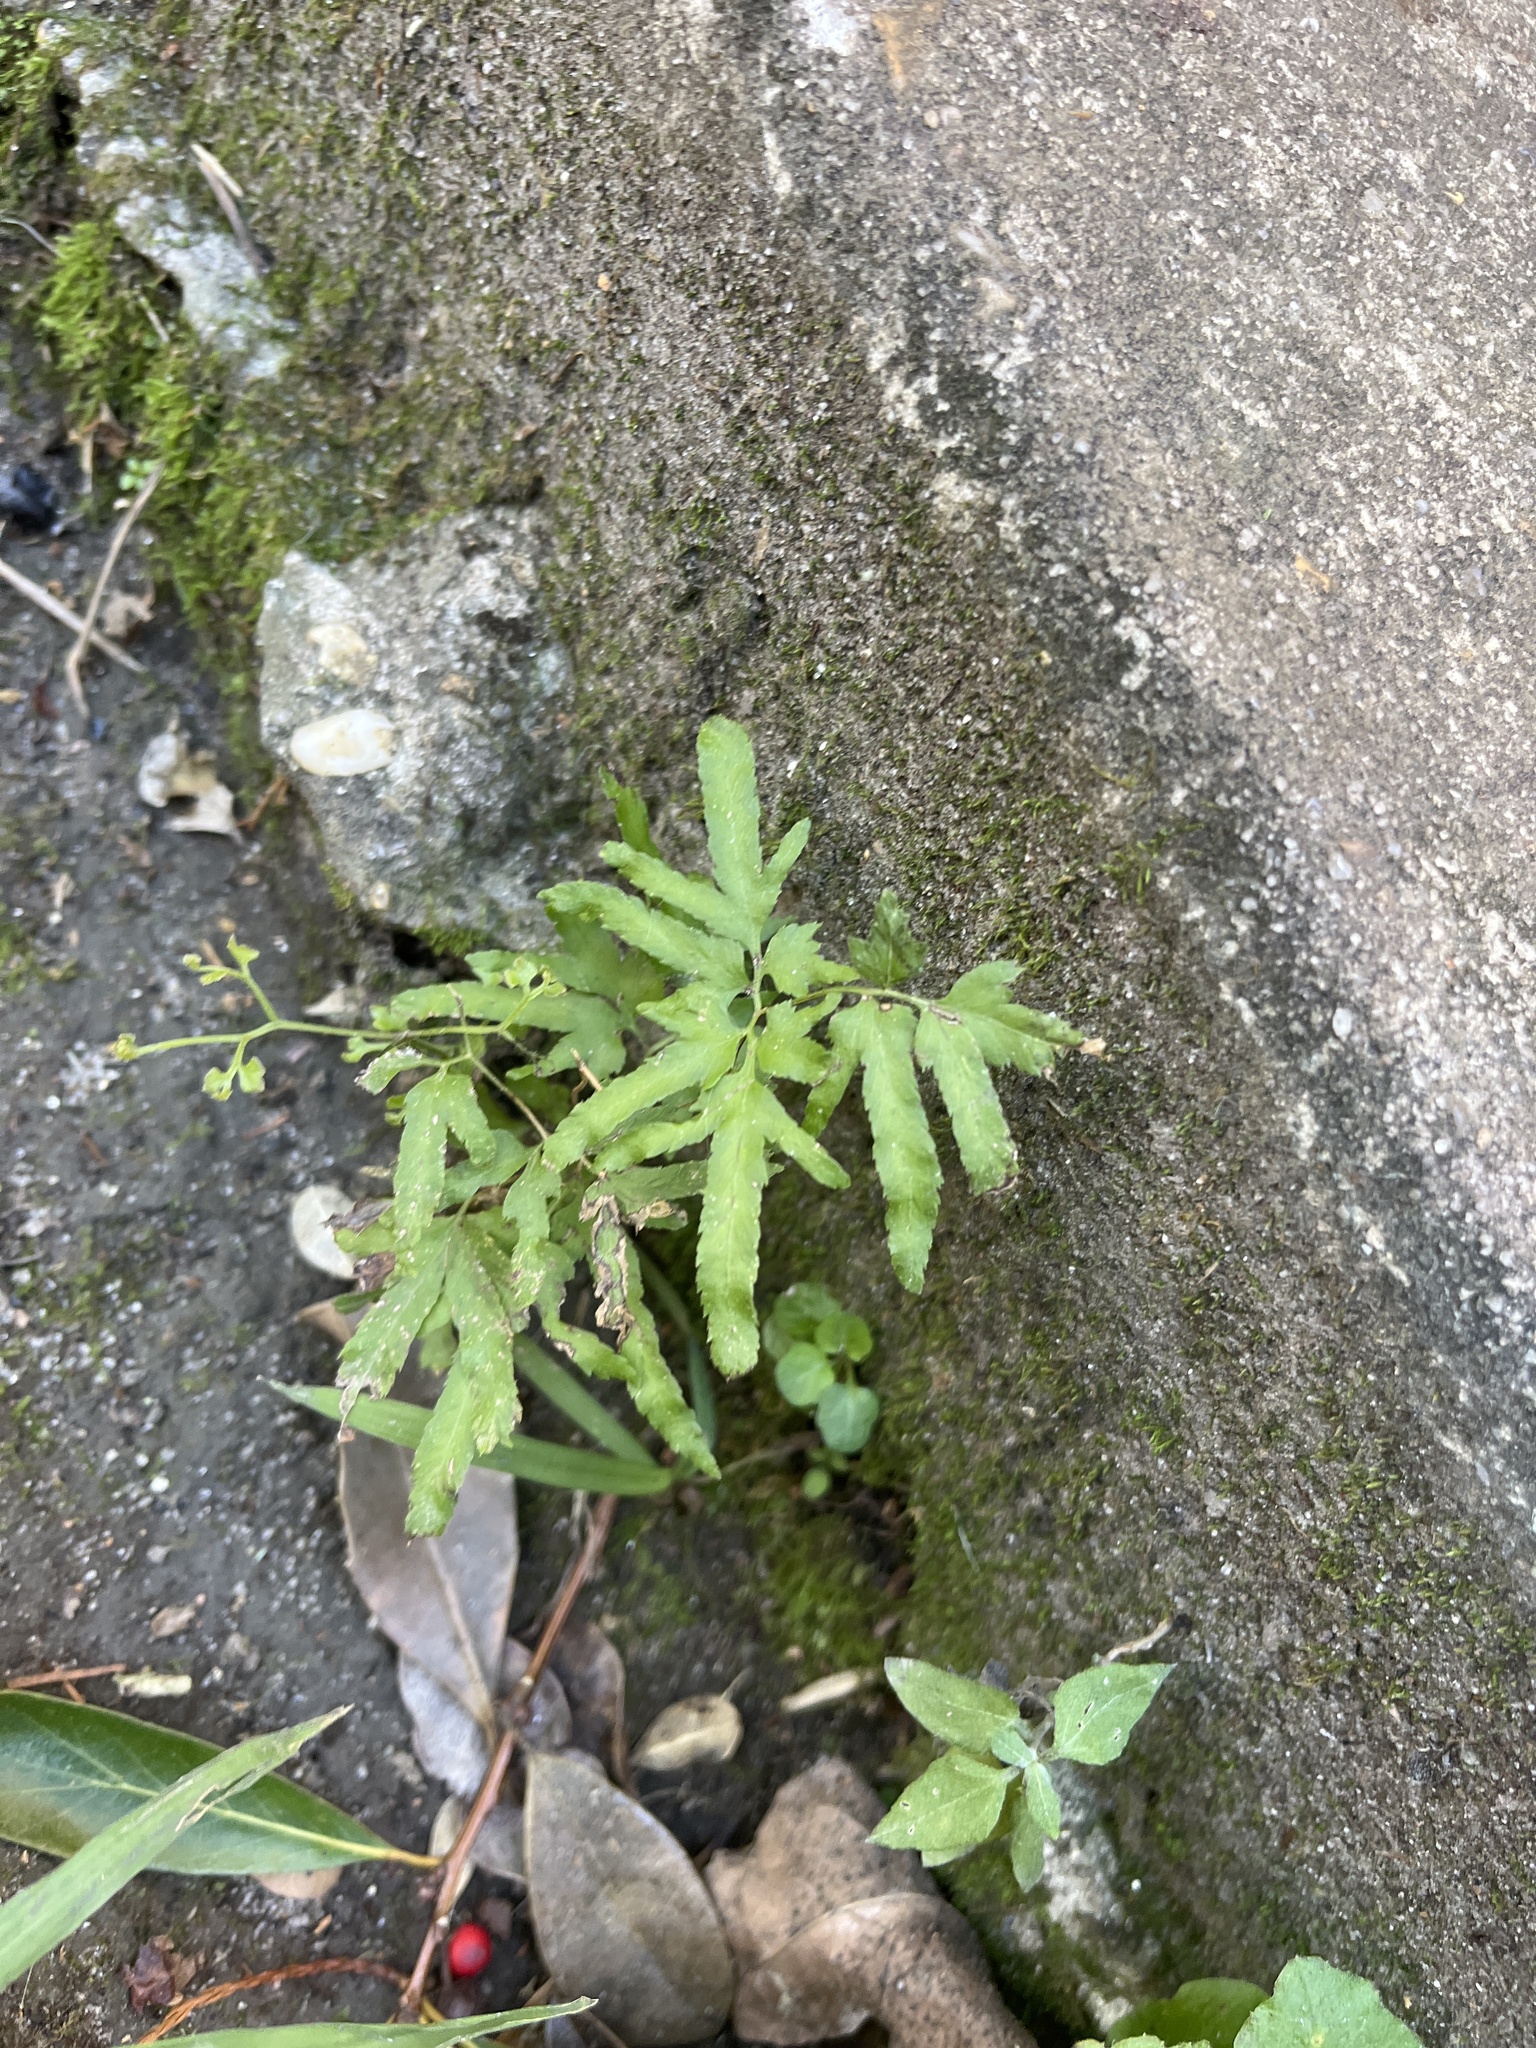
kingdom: Plantae
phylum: Tracheophyta
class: Polypodiopsida
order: Schizaeales
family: Lygodiaceae
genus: Lygodium
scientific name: Lygodium japonicum
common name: Japanese climbing fern
